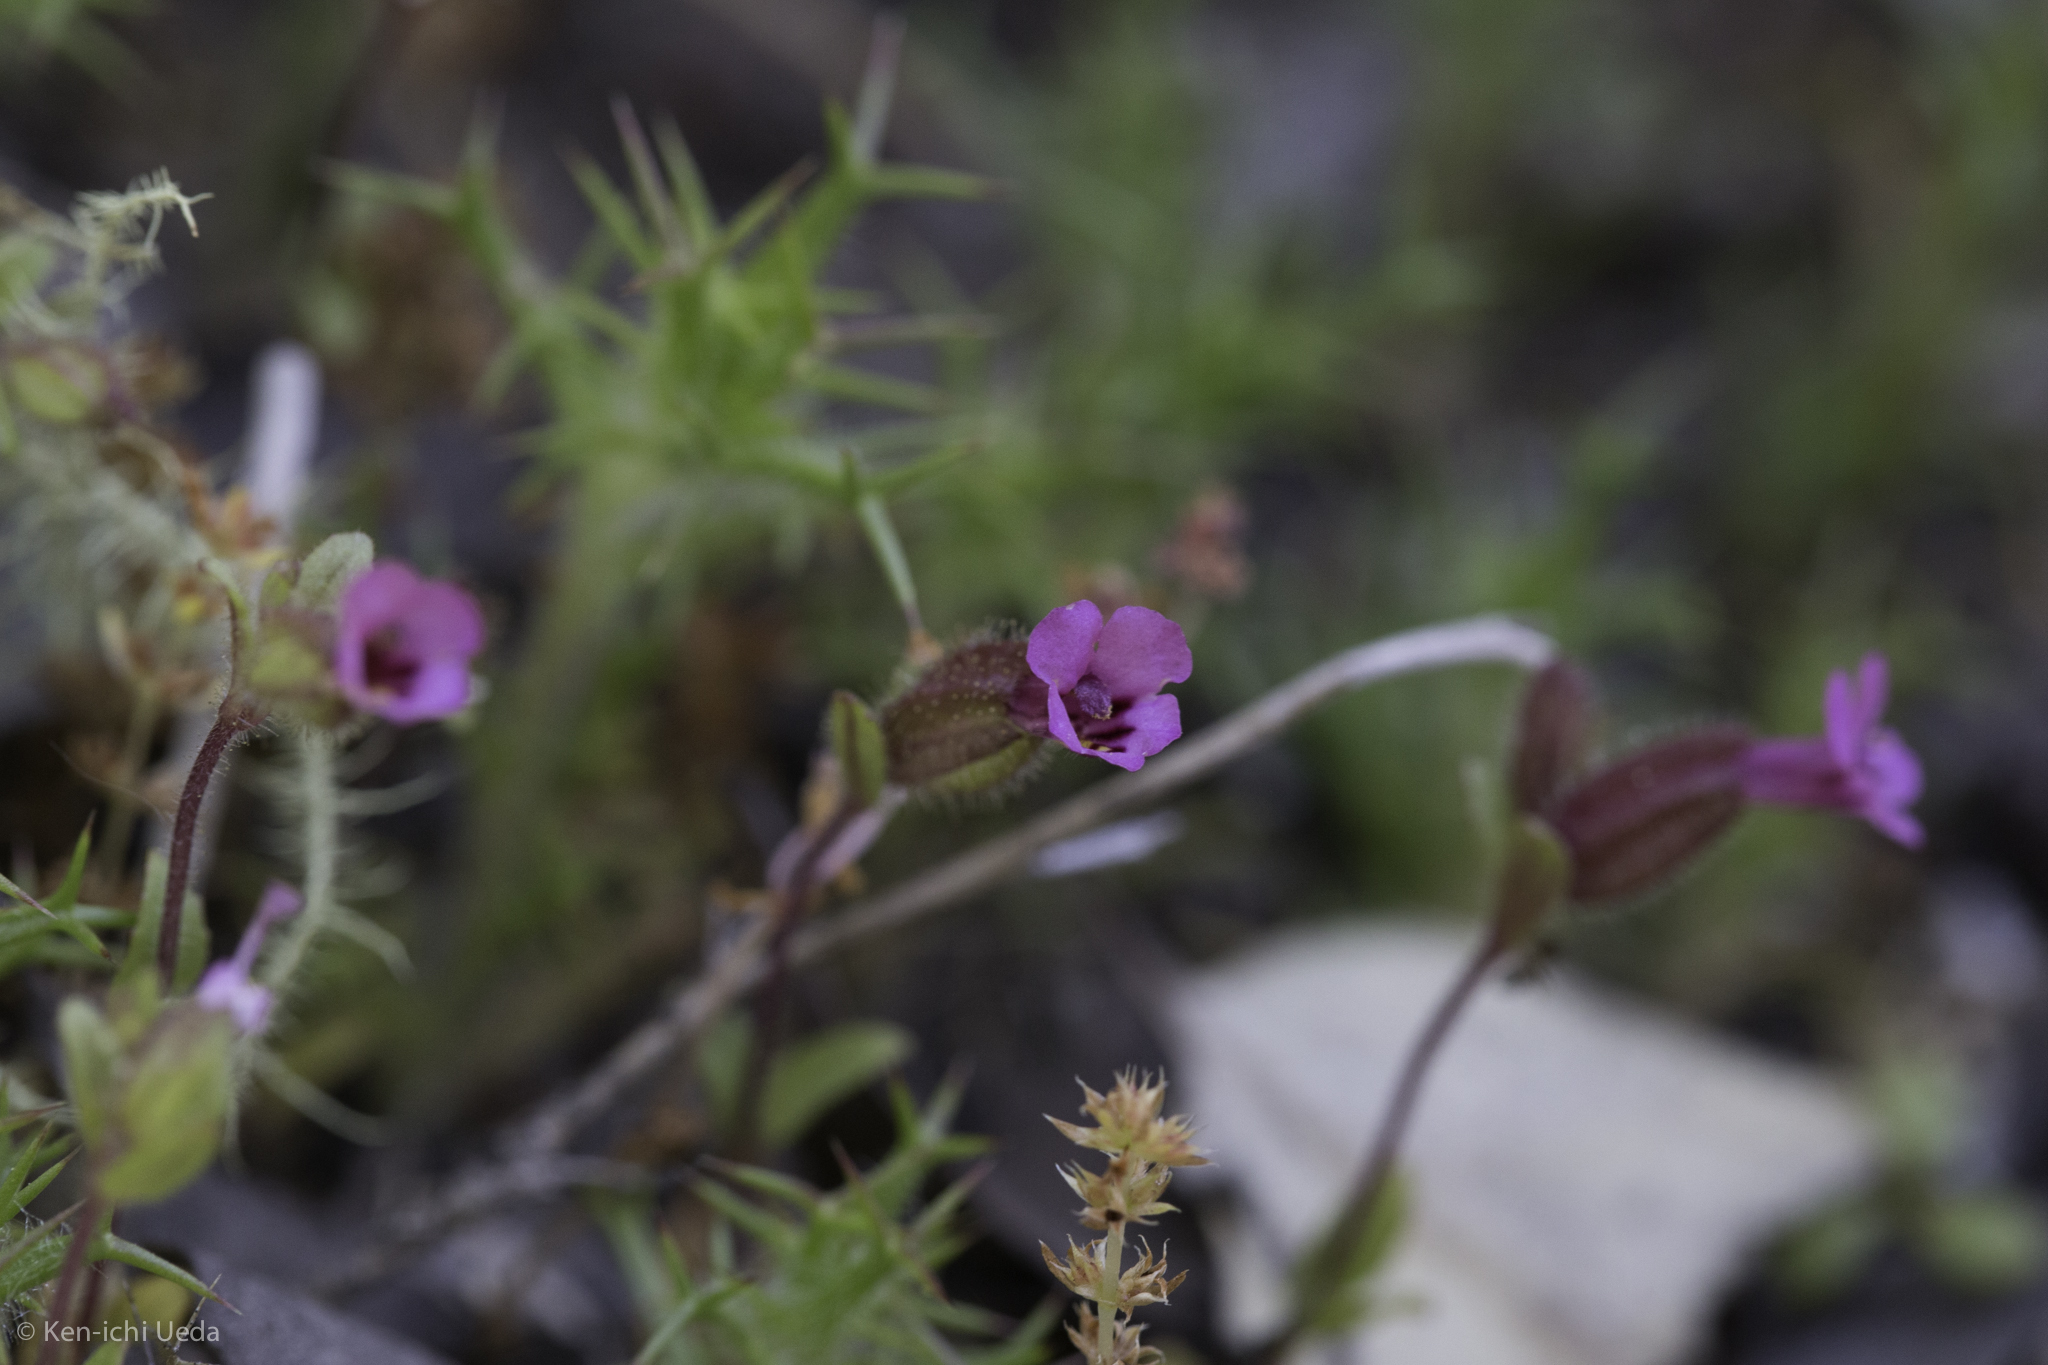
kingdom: Plantae
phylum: Tracheophyta
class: Magnoliopsida
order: Lamiales
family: Phrymaceae
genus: Diplacus
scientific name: Diplacus rattanii
